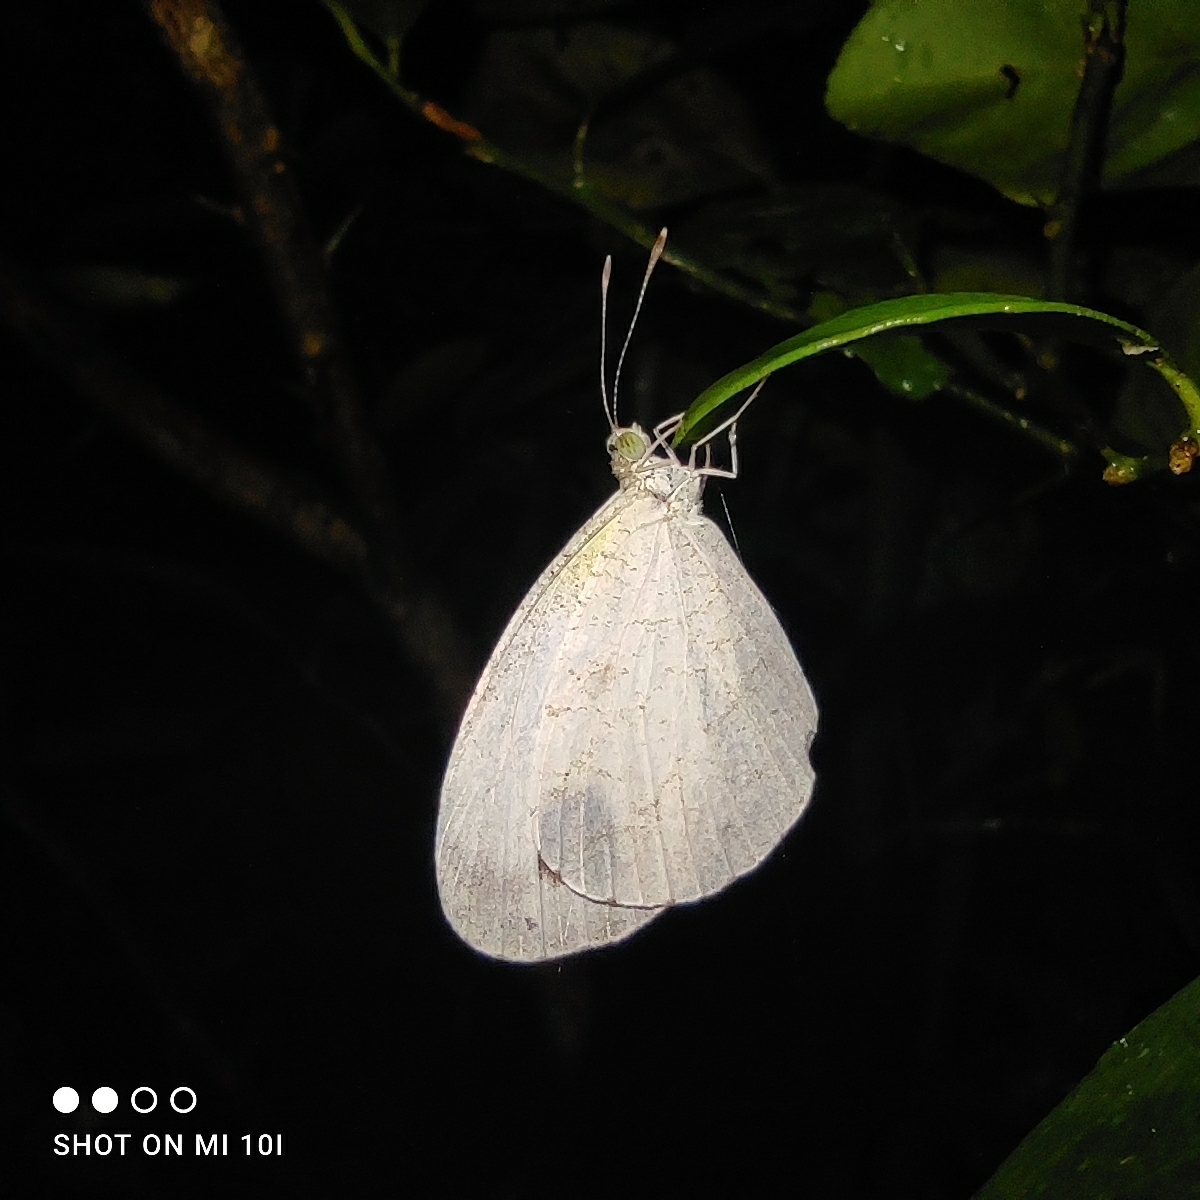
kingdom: Animalia
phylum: Arthropoda
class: Insecta
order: Lepidoptera
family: Pieridae
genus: Leptosia
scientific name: Leptosia nina
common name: Psyche
